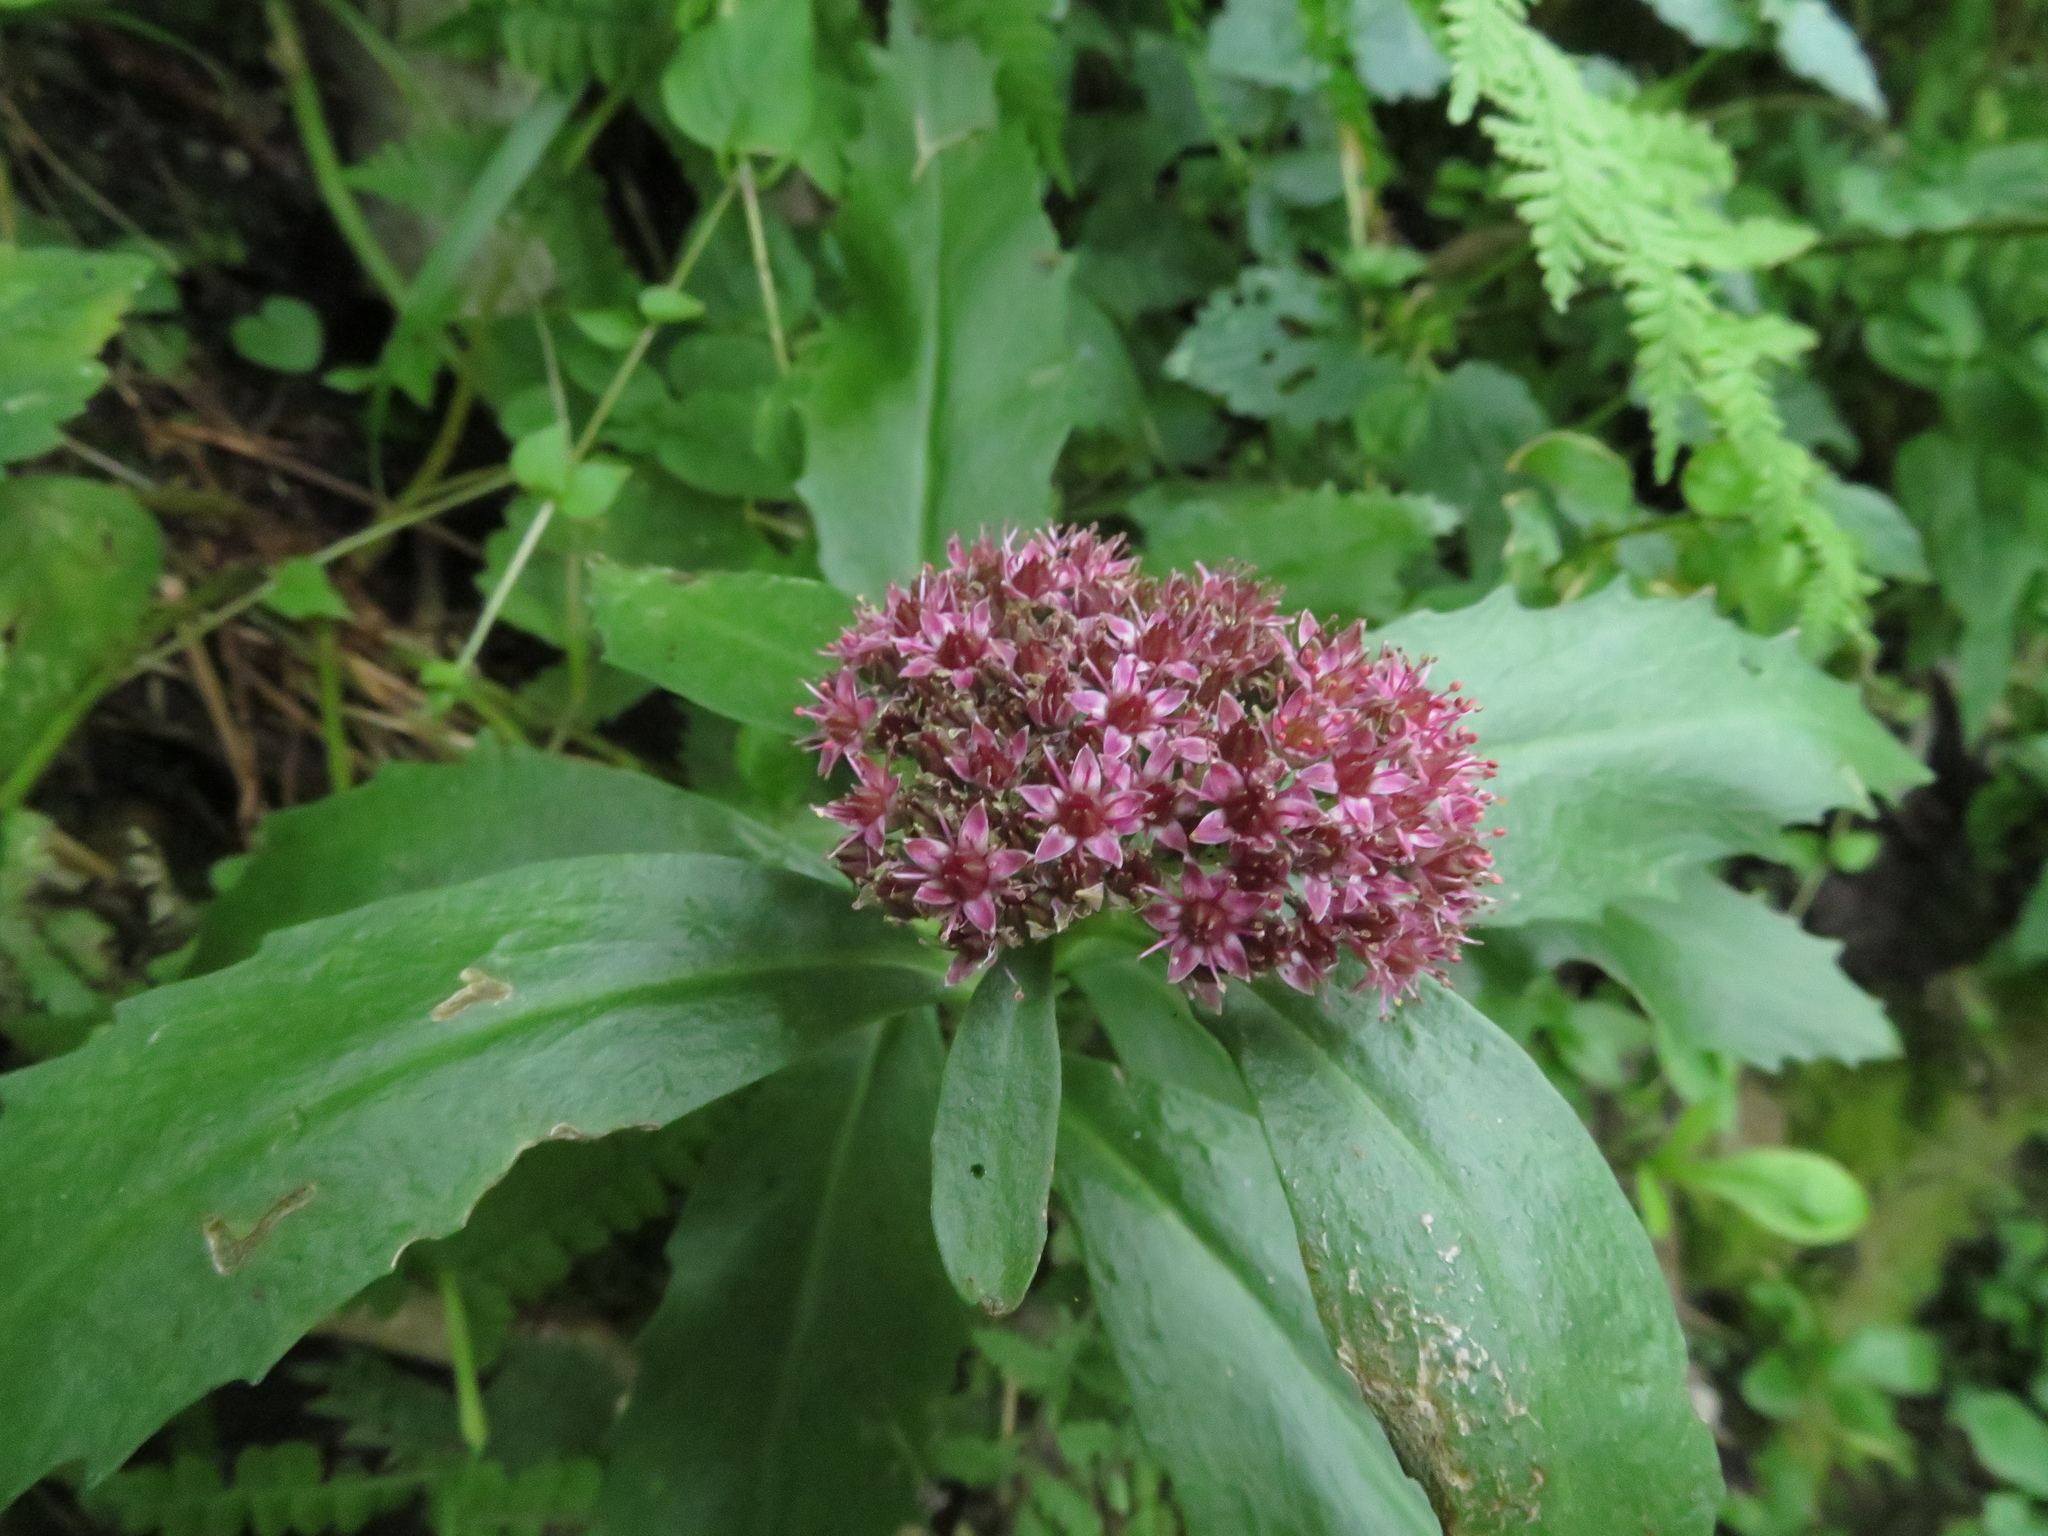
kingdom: Plantae
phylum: Tracheophyta
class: Magnoliopsida
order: Saxifragales
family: Crassulaceae
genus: Hylotelephium
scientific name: Hylotelephium telephium
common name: Live-forever
